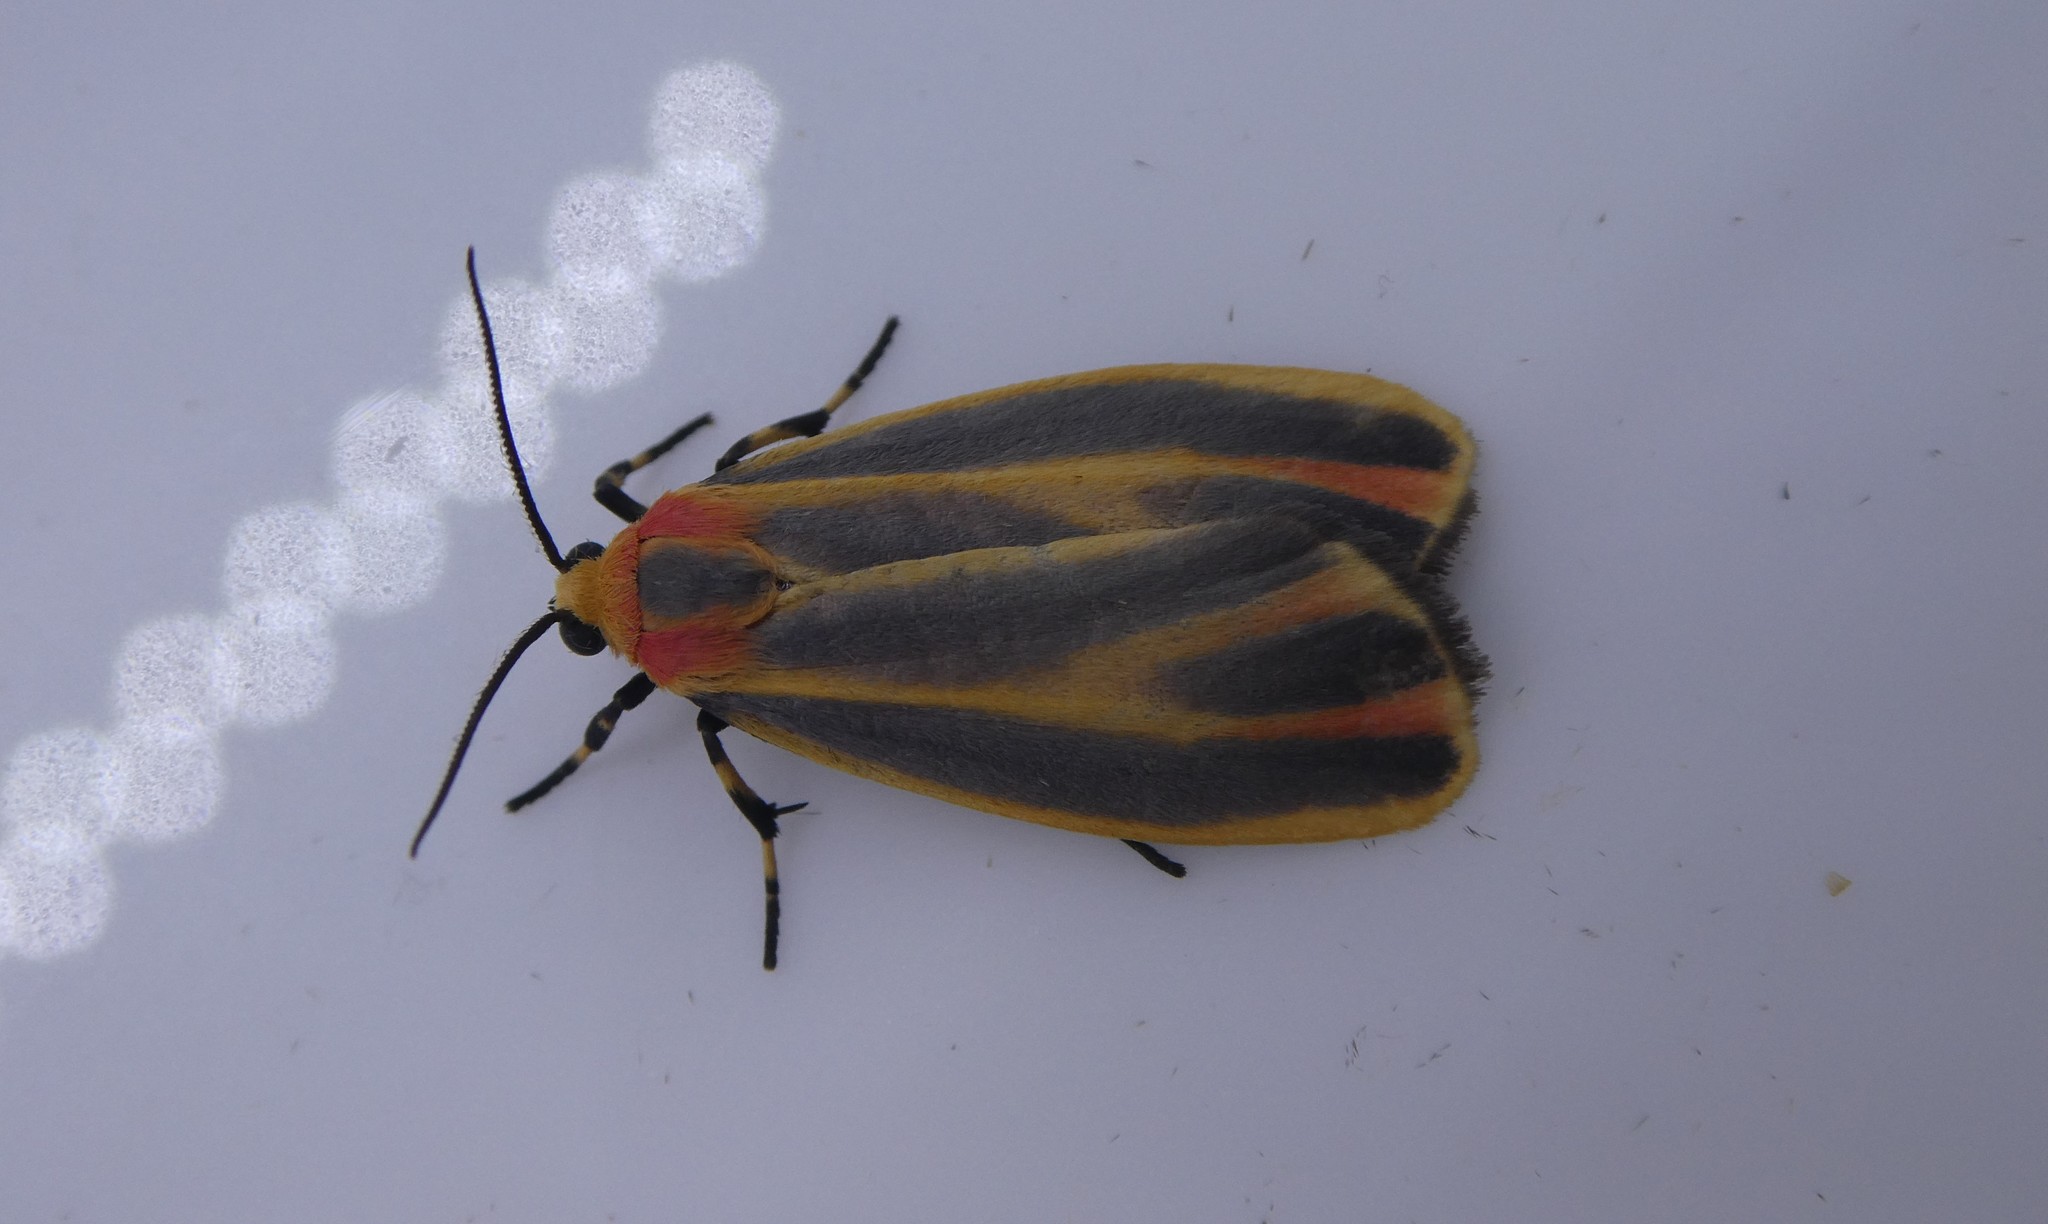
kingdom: Animalia
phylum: Arthropoda
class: Insecta
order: Lepidoptera
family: Erebidae
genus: Hypoprepia
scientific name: Hypoprepia fucosa
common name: Painted lichen moth
